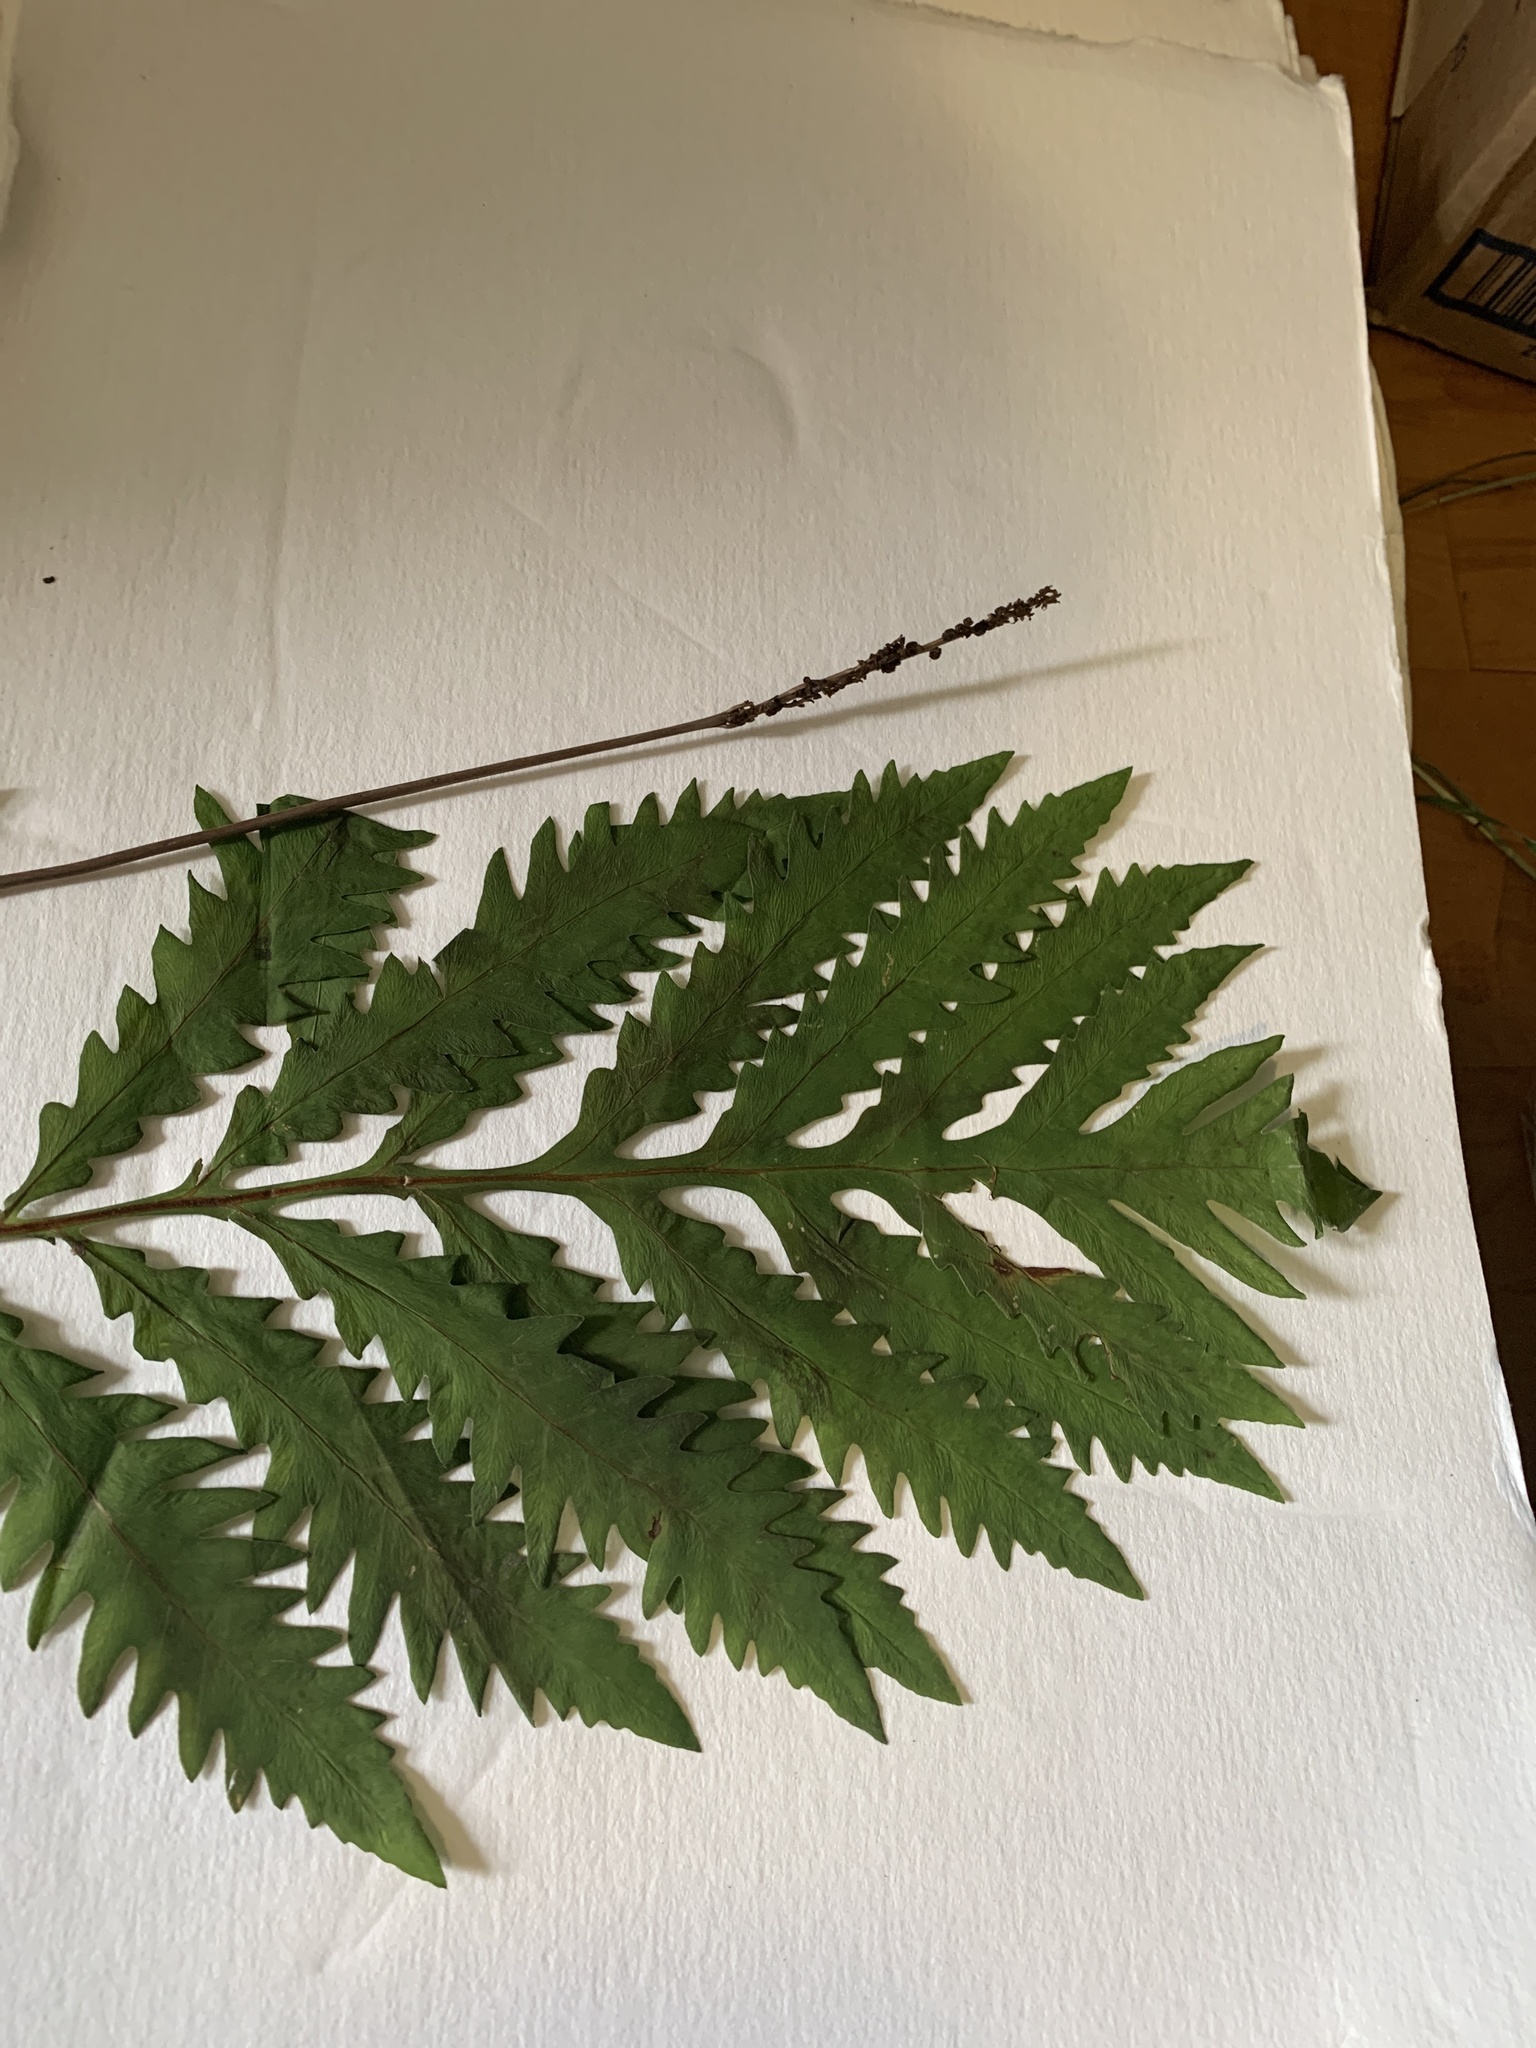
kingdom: Plantae
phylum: Tracheophyta
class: Polypodiopsida
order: Polypodiales
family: Onocleaceae
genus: Onoclea
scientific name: Onoclea sensibilis
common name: Sensitive fern
